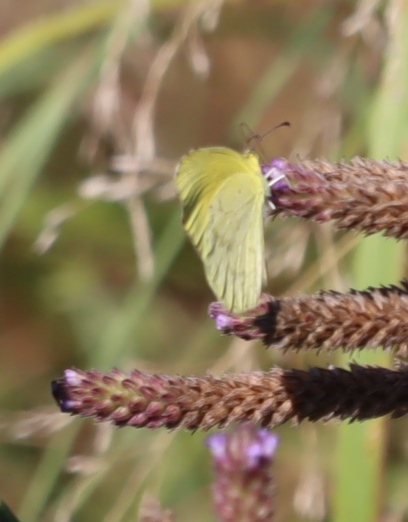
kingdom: Animalia
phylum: Arthropoda
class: Insecta
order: Lepidoptera
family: Pieridae
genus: Eurema
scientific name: Eurema brigitta
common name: Small grass yellow
